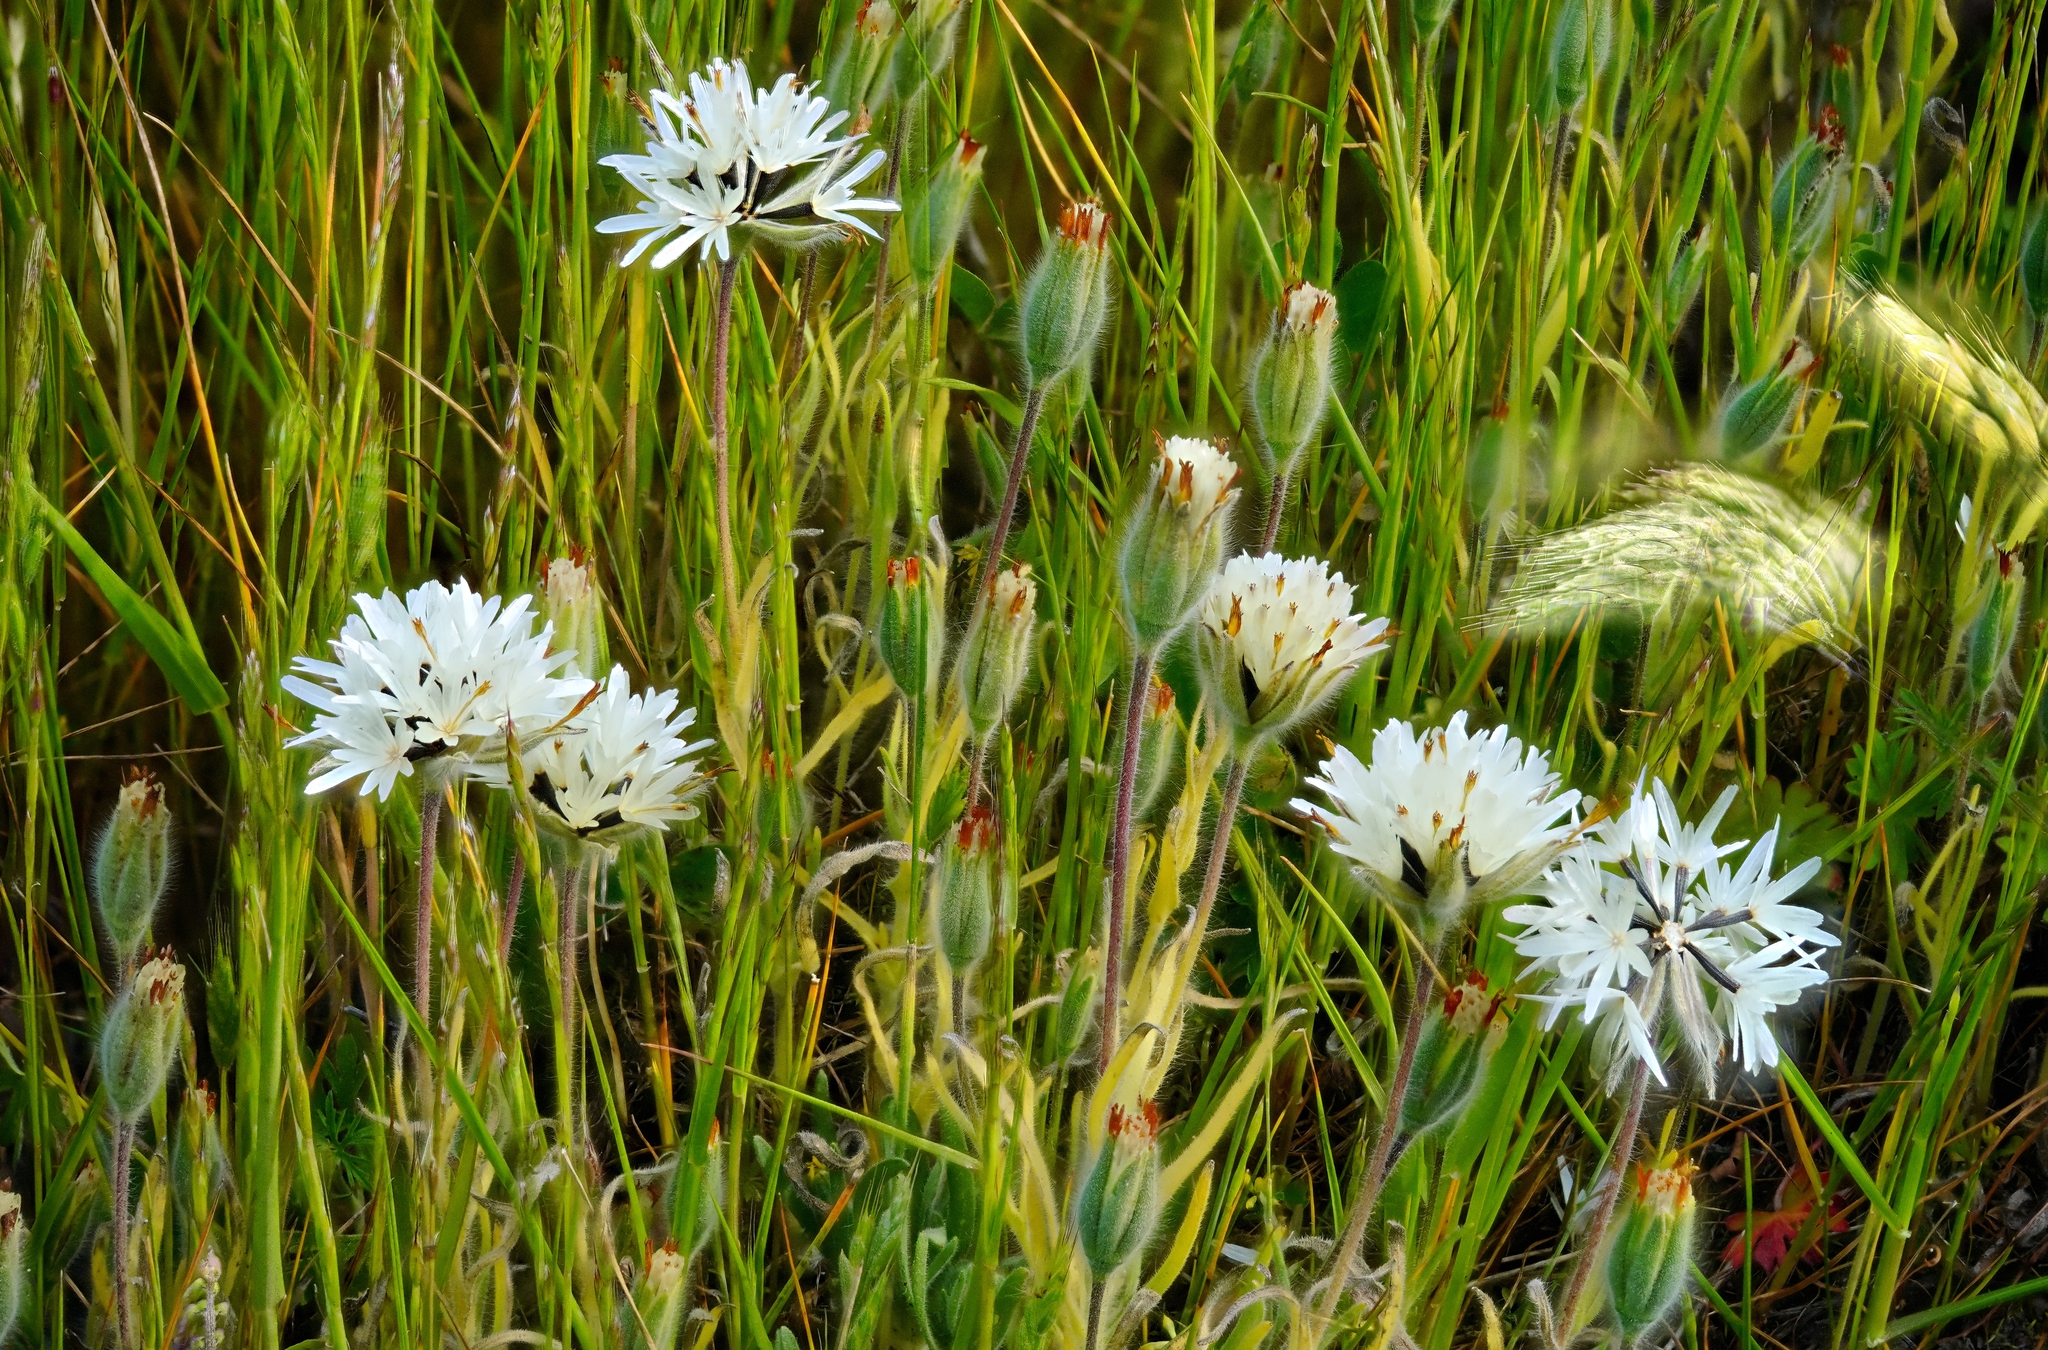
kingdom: Plantae
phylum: Tracheophyta
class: Magnoliopsida
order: Asterales
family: Asteraceae
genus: Achyrachaena
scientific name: Achyrachaena mollis
